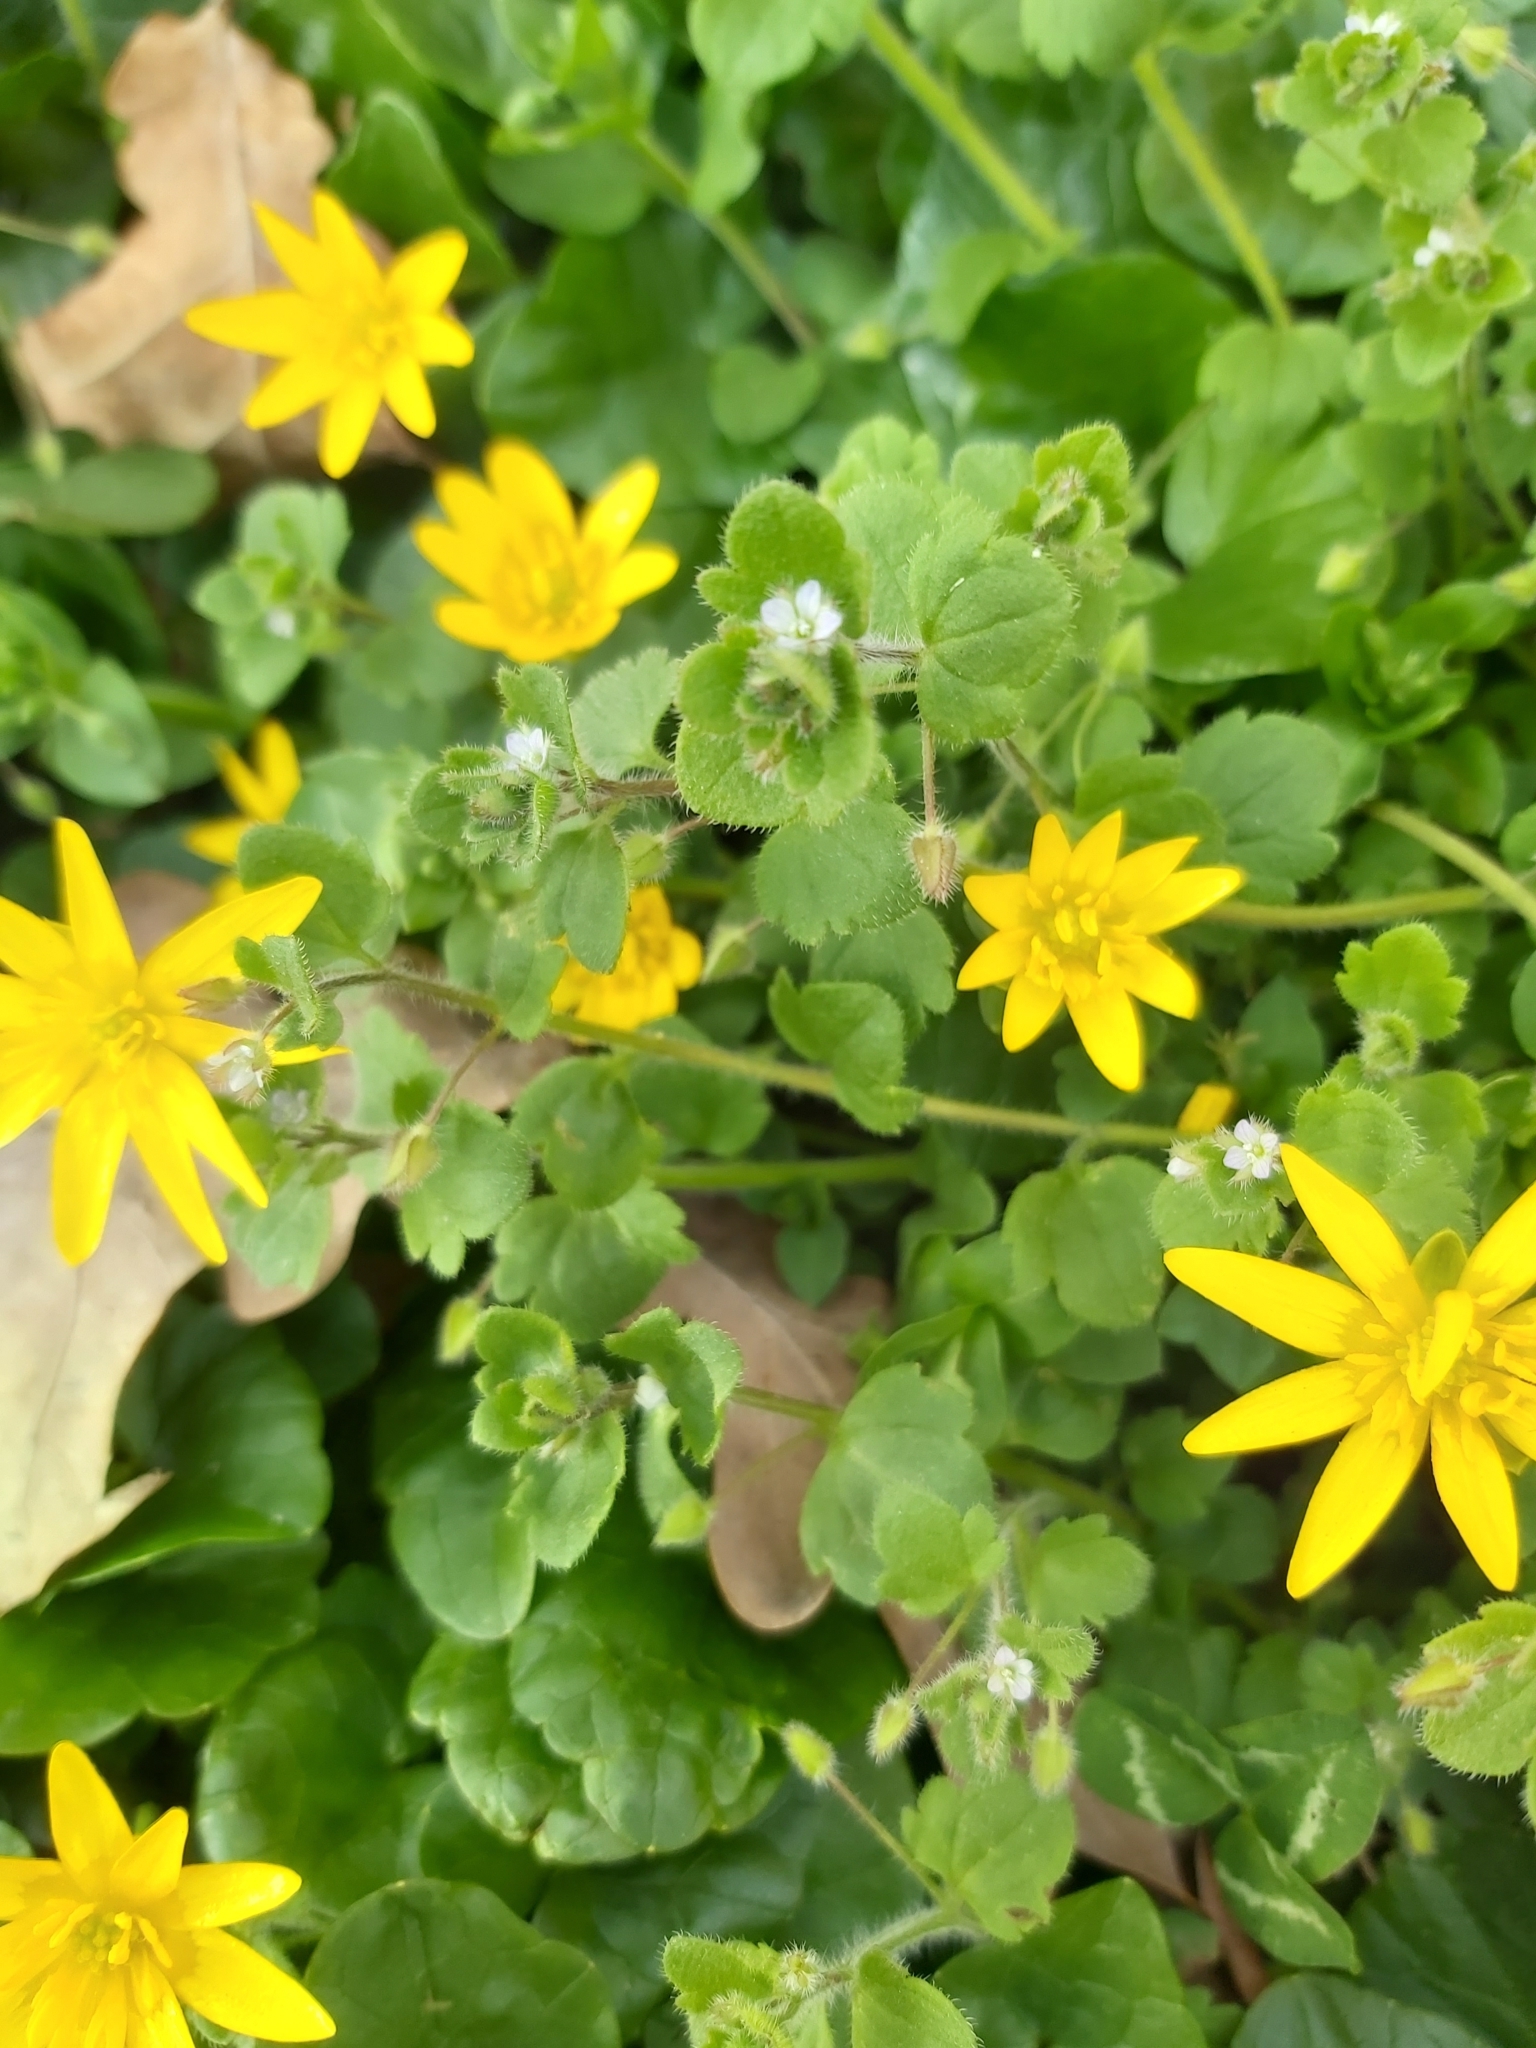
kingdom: Plantae
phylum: Tracheophyta
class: Magnoliopsida
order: Ranunculales
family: Ranunculaceae
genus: Ficaria
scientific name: Ficaria verna
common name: Lesser celandine
